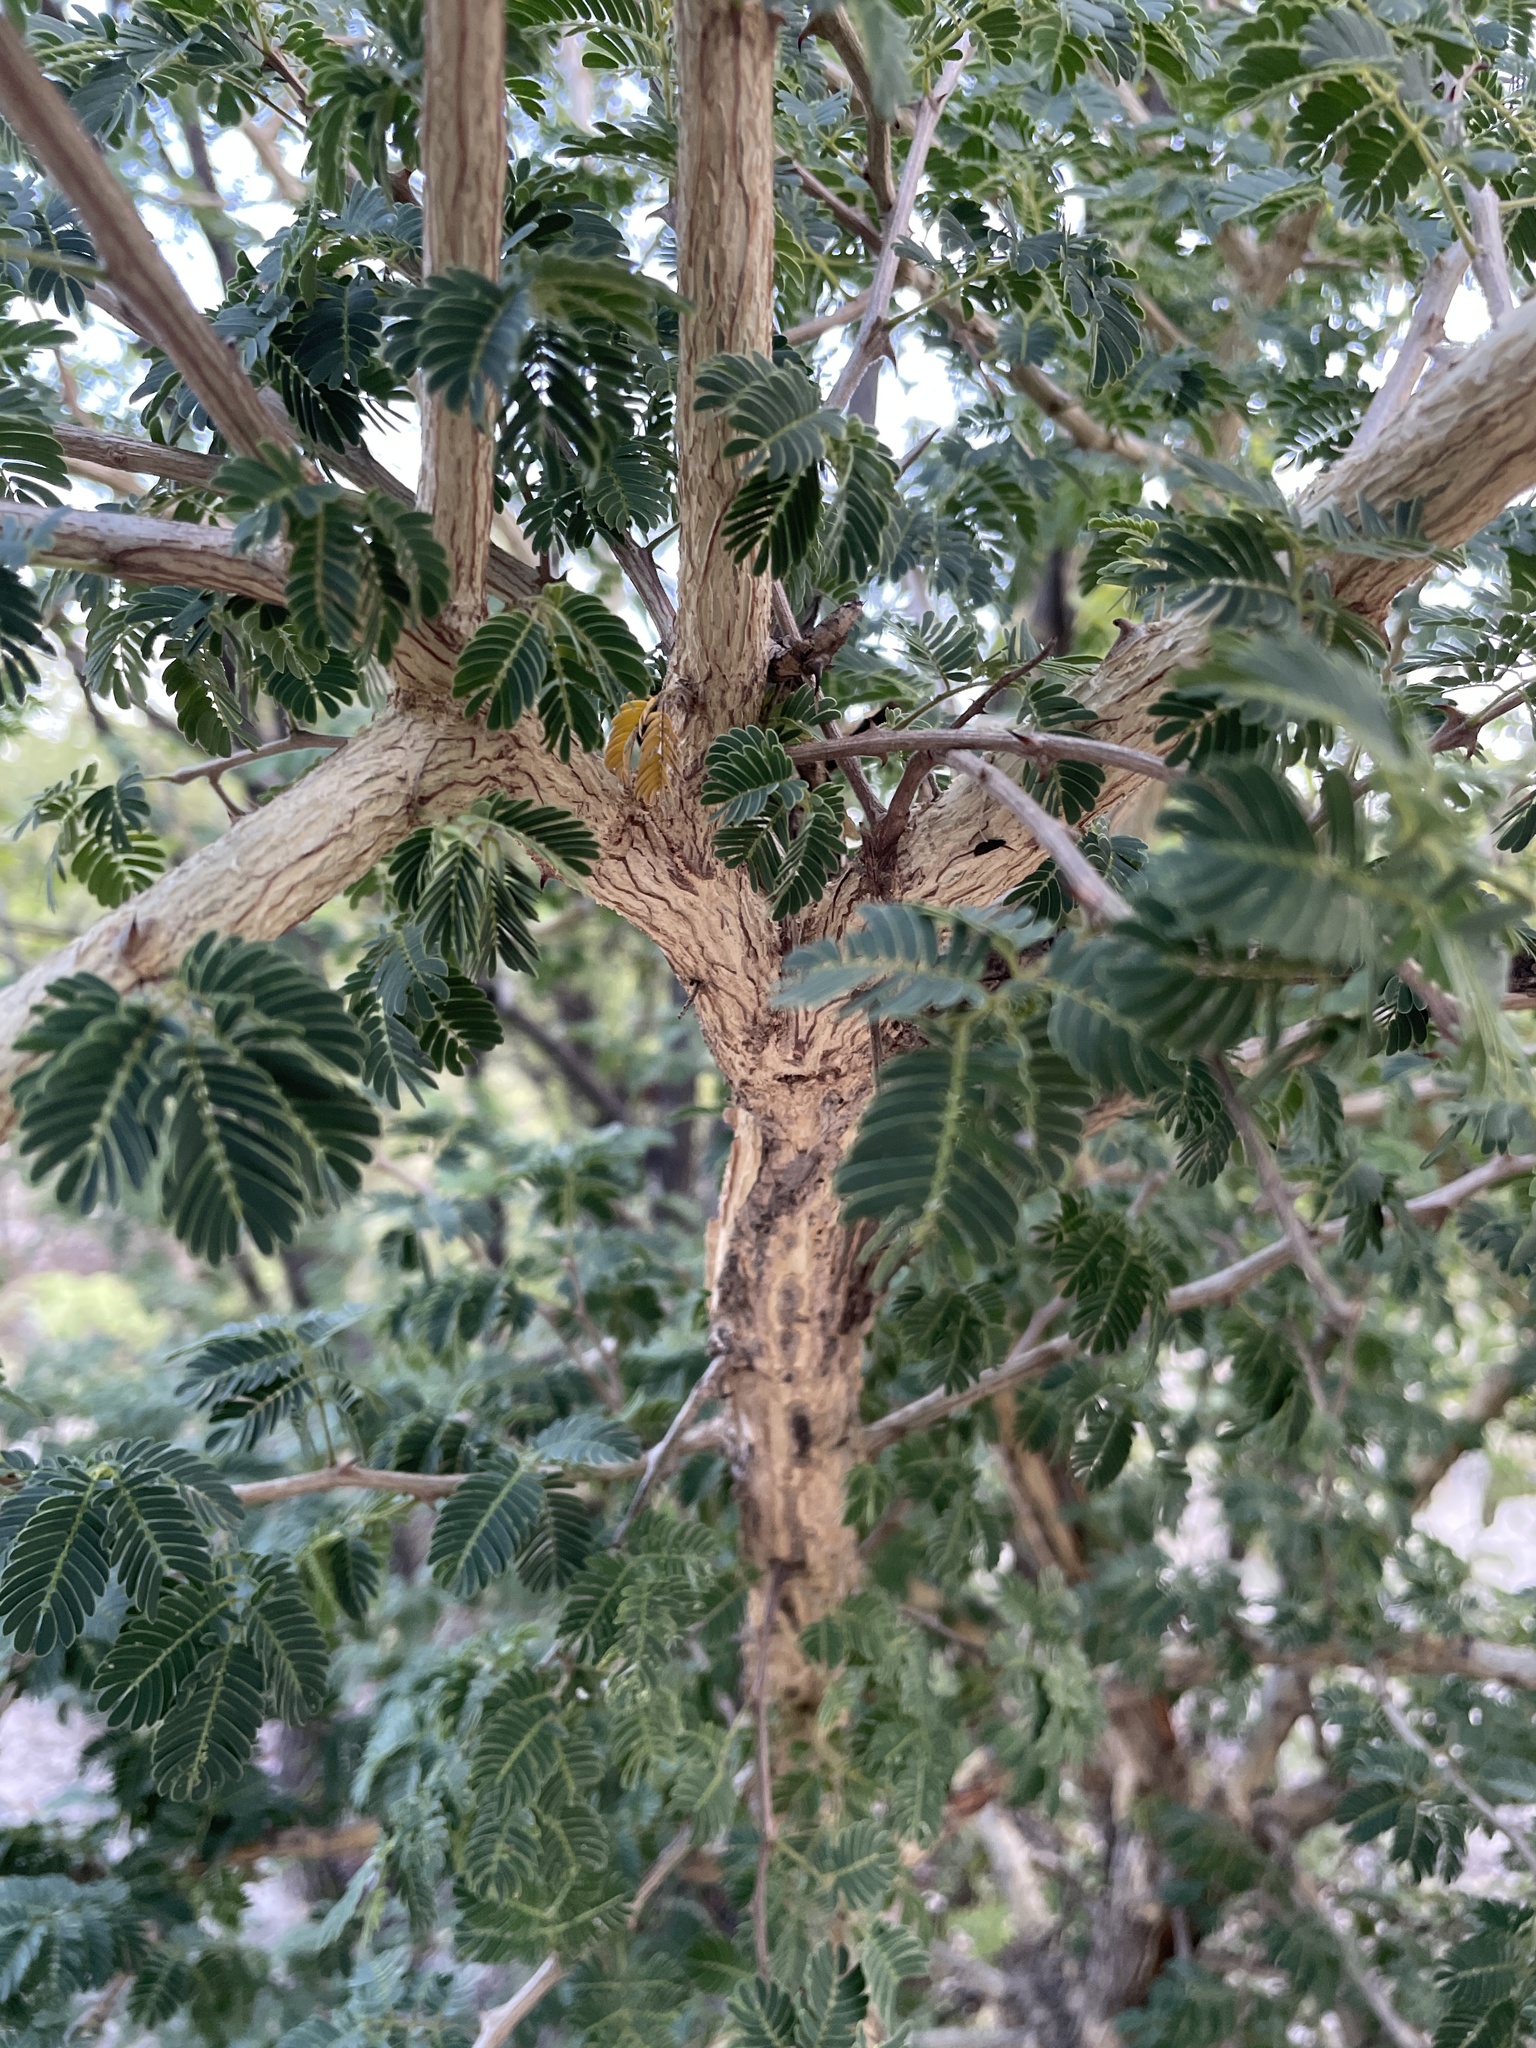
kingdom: Plantae
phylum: Tracheophyta
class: Magnoliopsida
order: Fabales
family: Fabaceae
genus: Senegalia
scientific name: Senegalia erubescens
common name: Bluethorn
